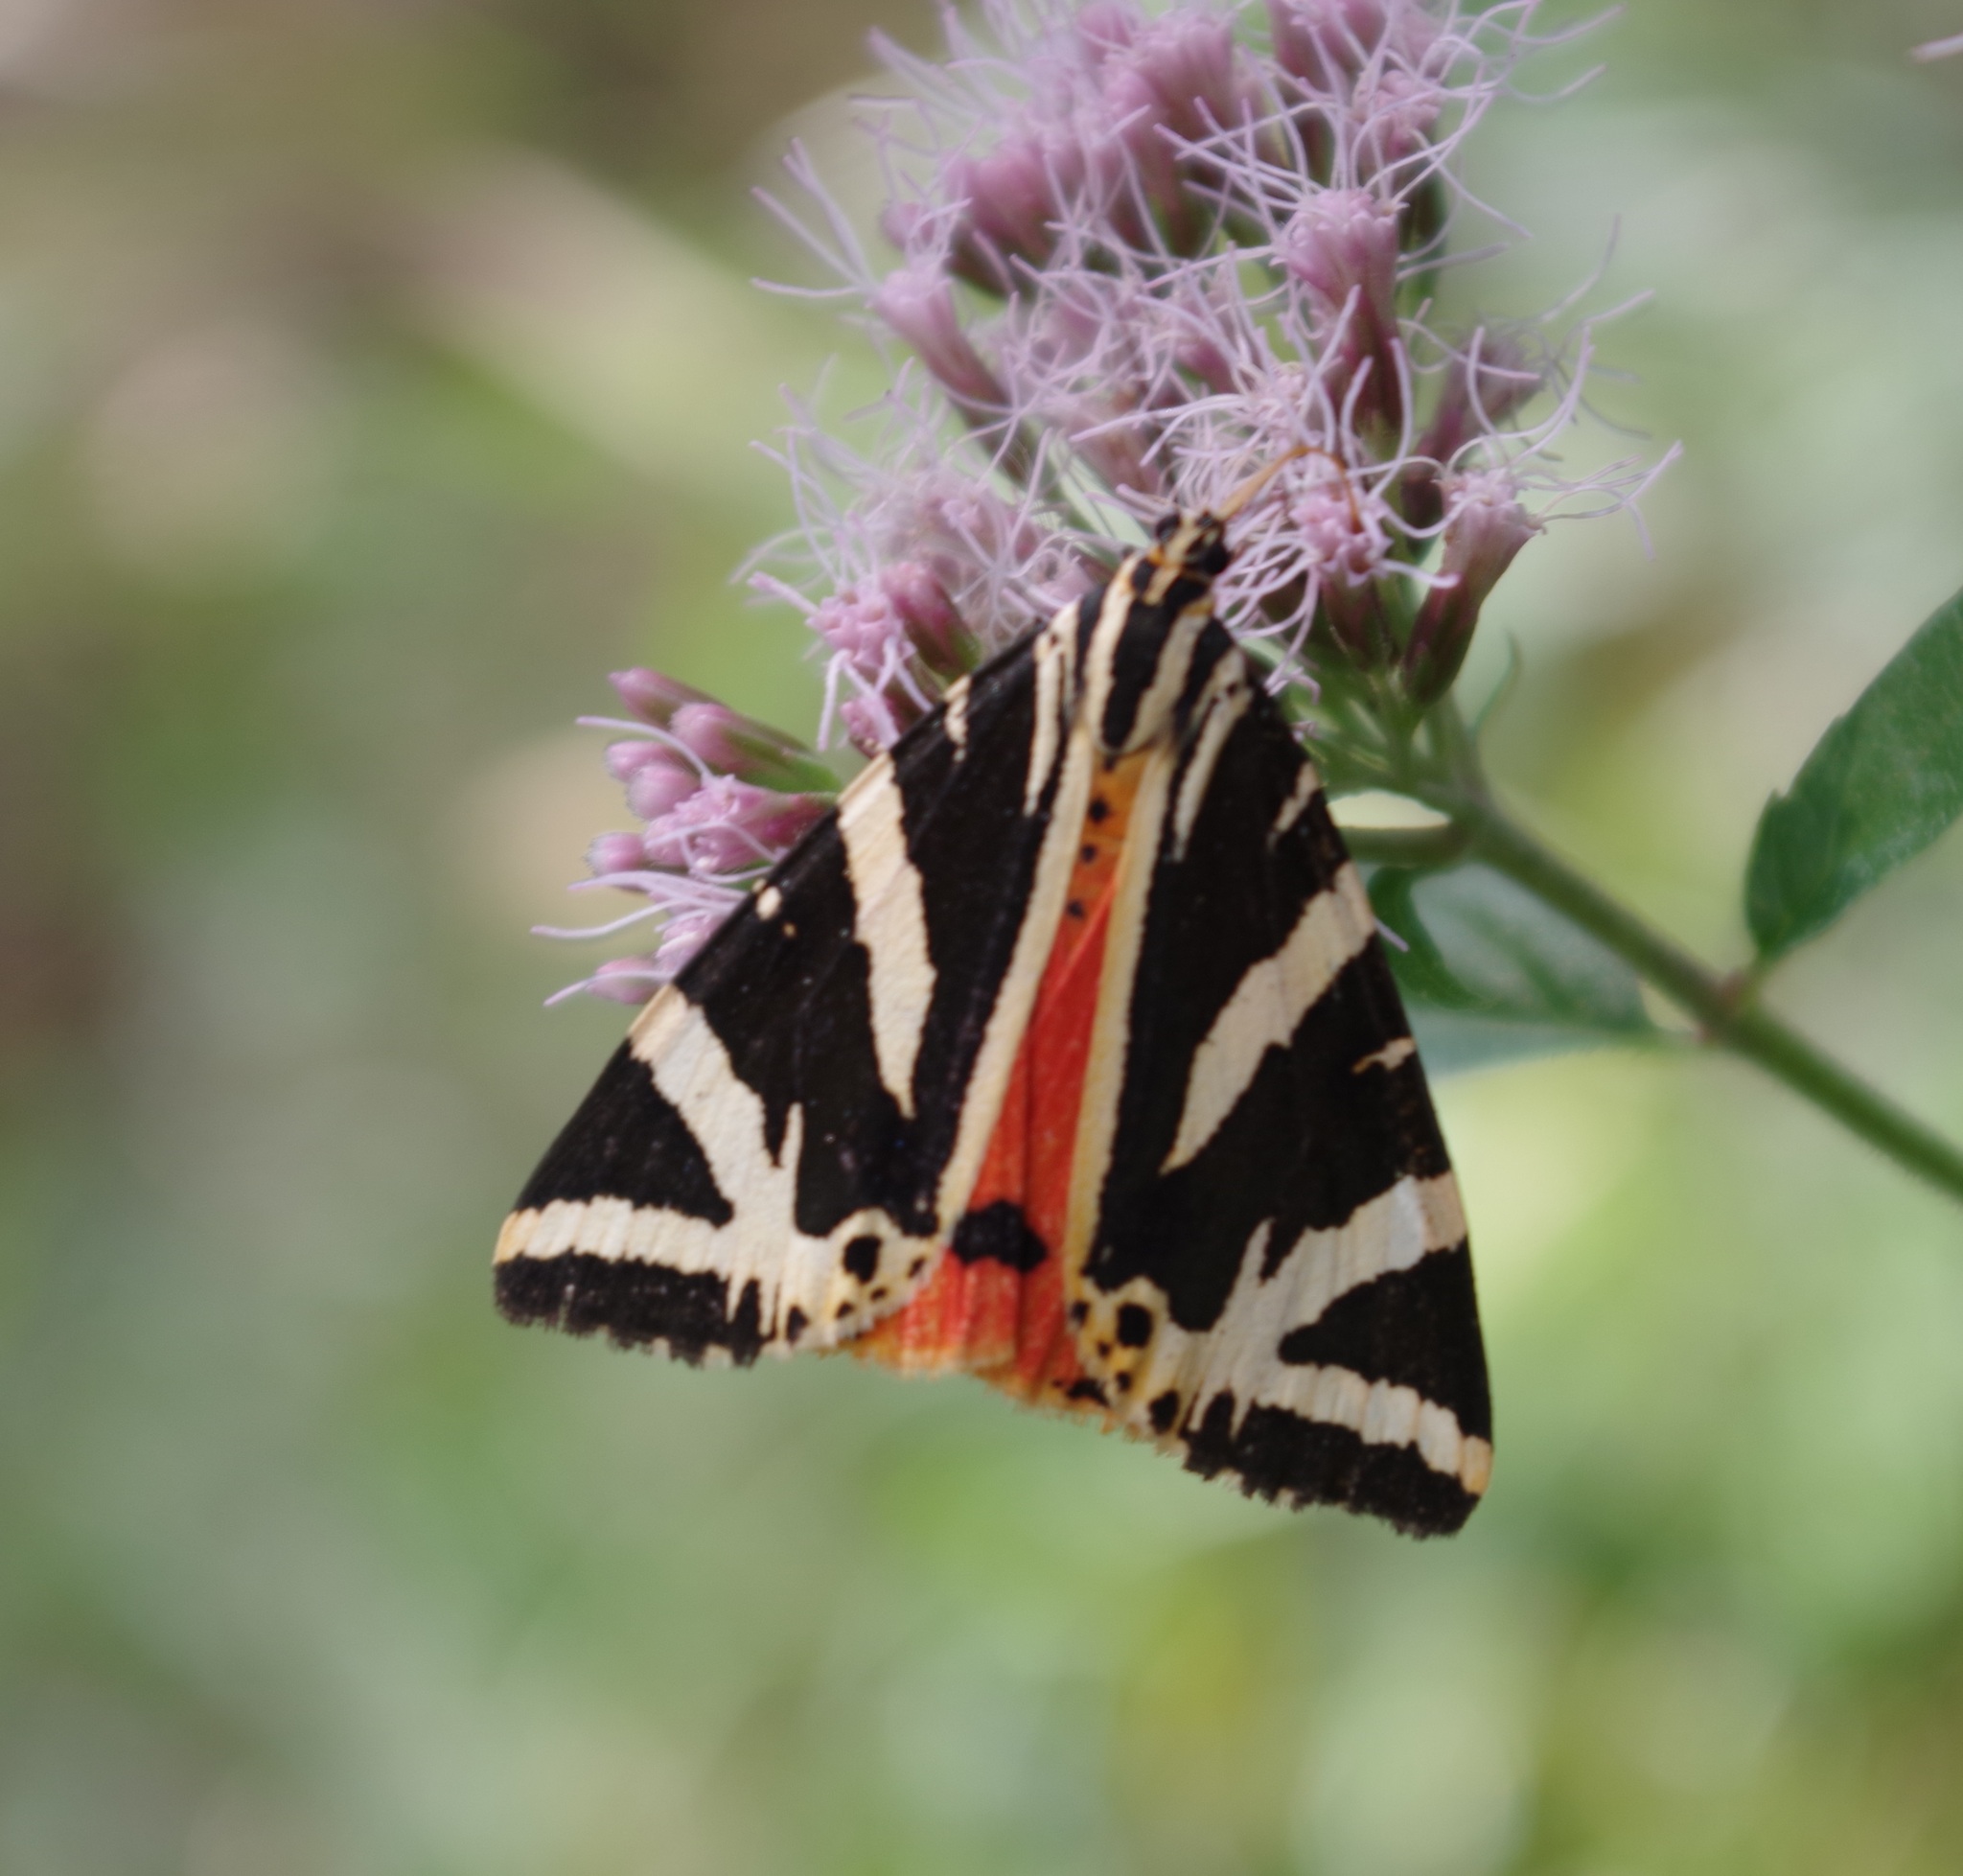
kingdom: Animalia
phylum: Arthropoda
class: Insecta
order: Lepidoptera
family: Erebidae
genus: Euplagia
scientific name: Euplagia quadripunctaria
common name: Jersey tiger
